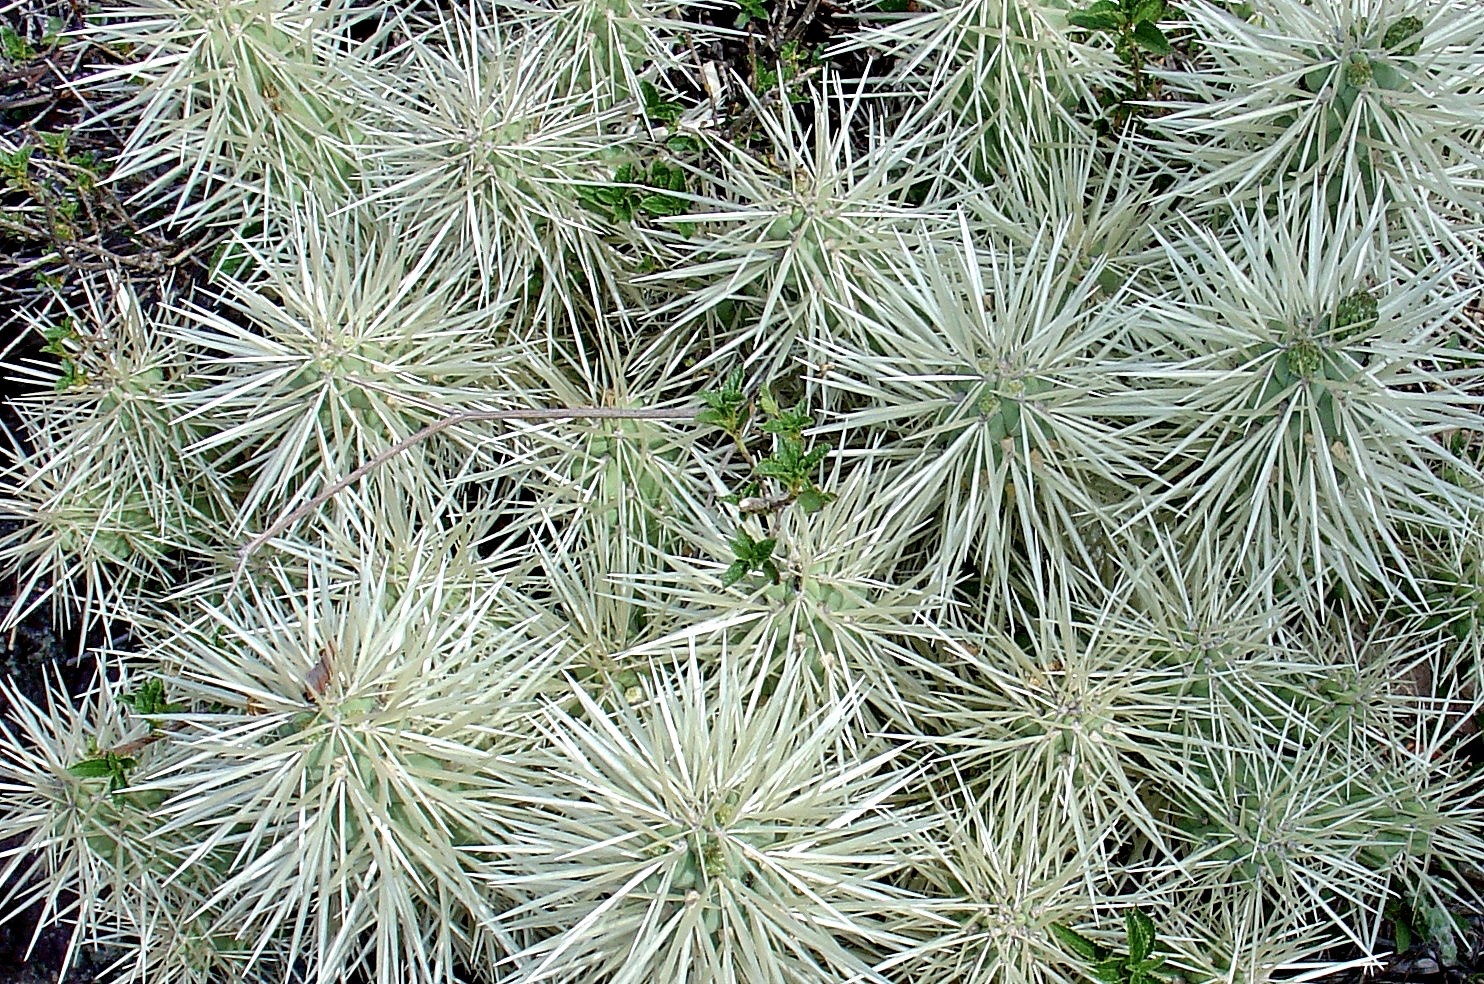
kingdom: Plantae
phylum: Tracheophyta
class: Magnoliopsida
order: Caryophyllales
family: Cactaceae
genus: Cylindropuntia
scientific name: Cylindropuntia tunicata
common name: Sheathed cholla
